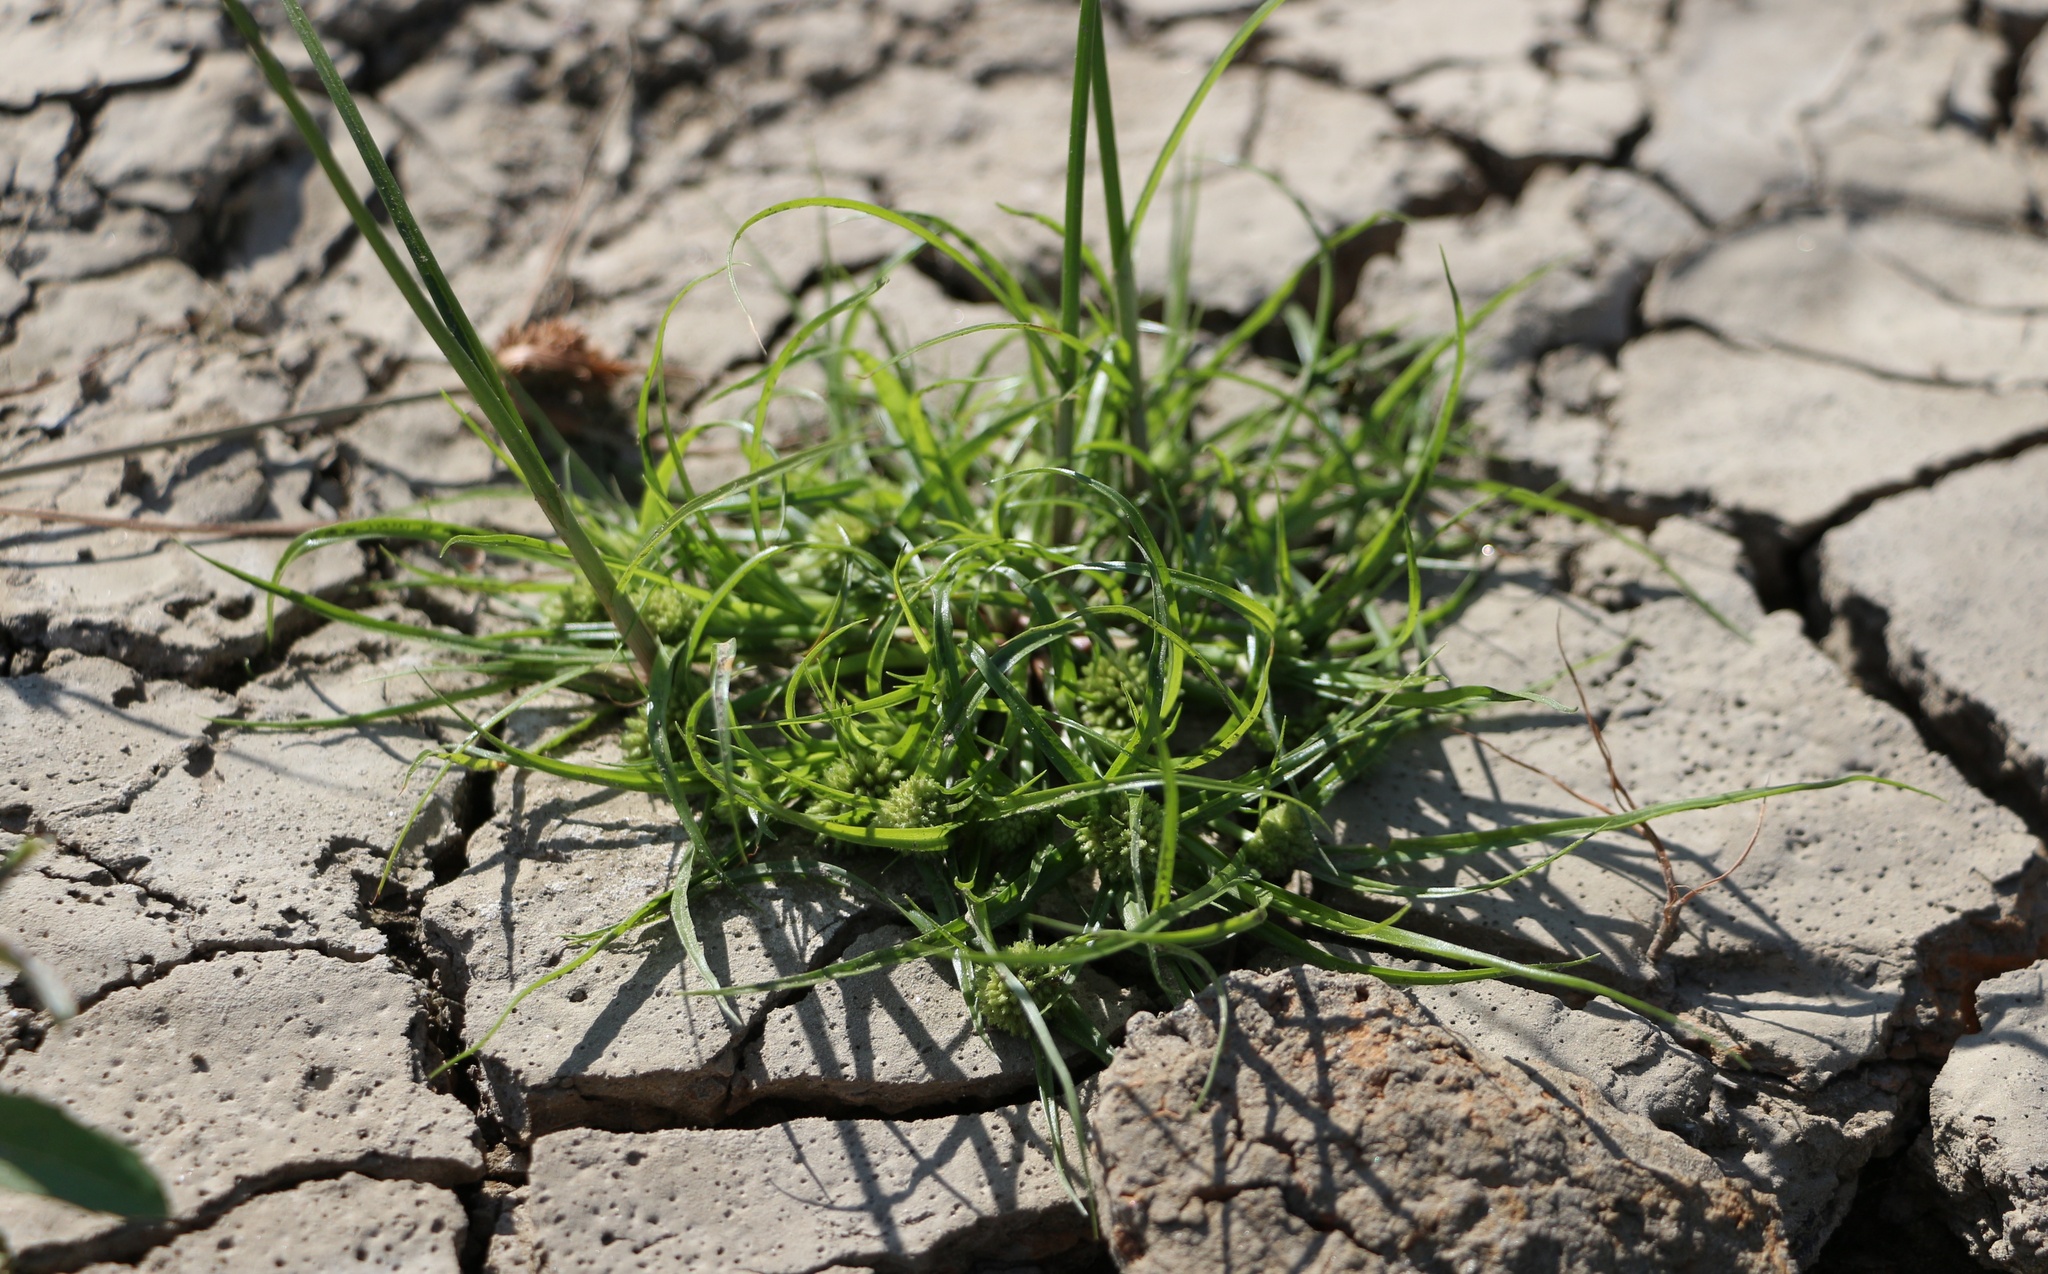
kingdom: Plantae
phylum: Tracheophyta
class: Liliopsida
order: Poales
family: Cyperaceae
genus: Cyperus
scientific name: Cyperus michelianus
